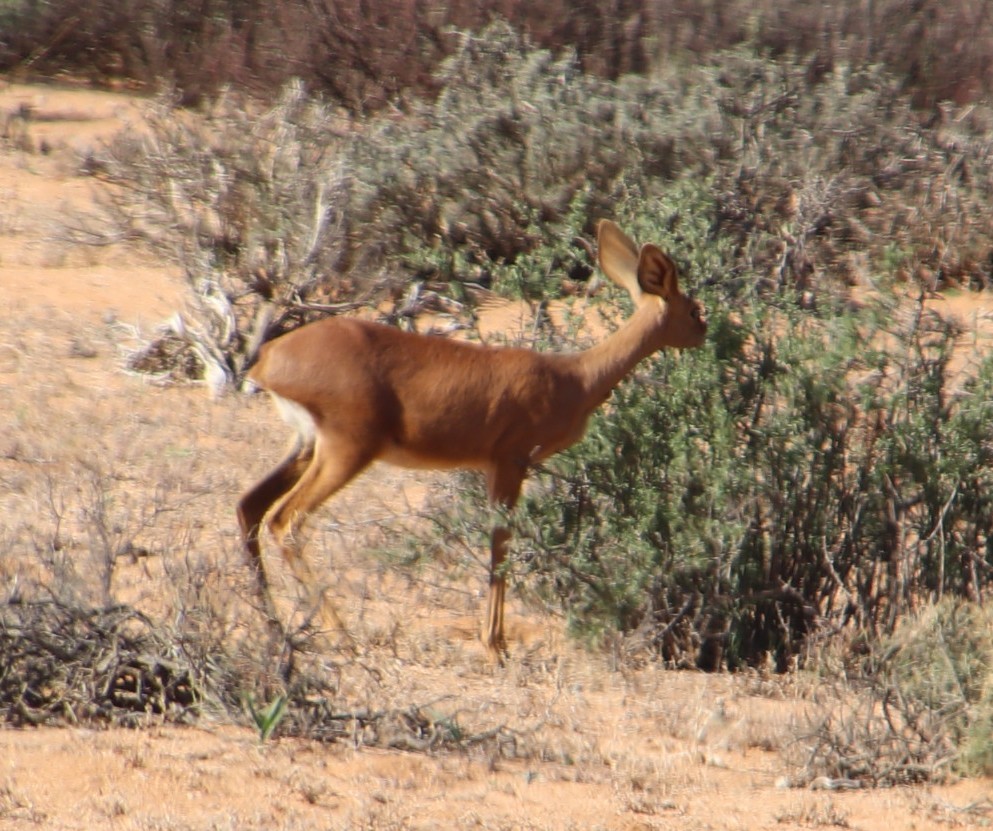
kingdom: Animalia
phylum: Chordata
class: Mammalia
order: Artiodactyla
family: Bovidae
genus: Raphicerus
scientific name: Raphicerus campestris
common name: Steenbok
